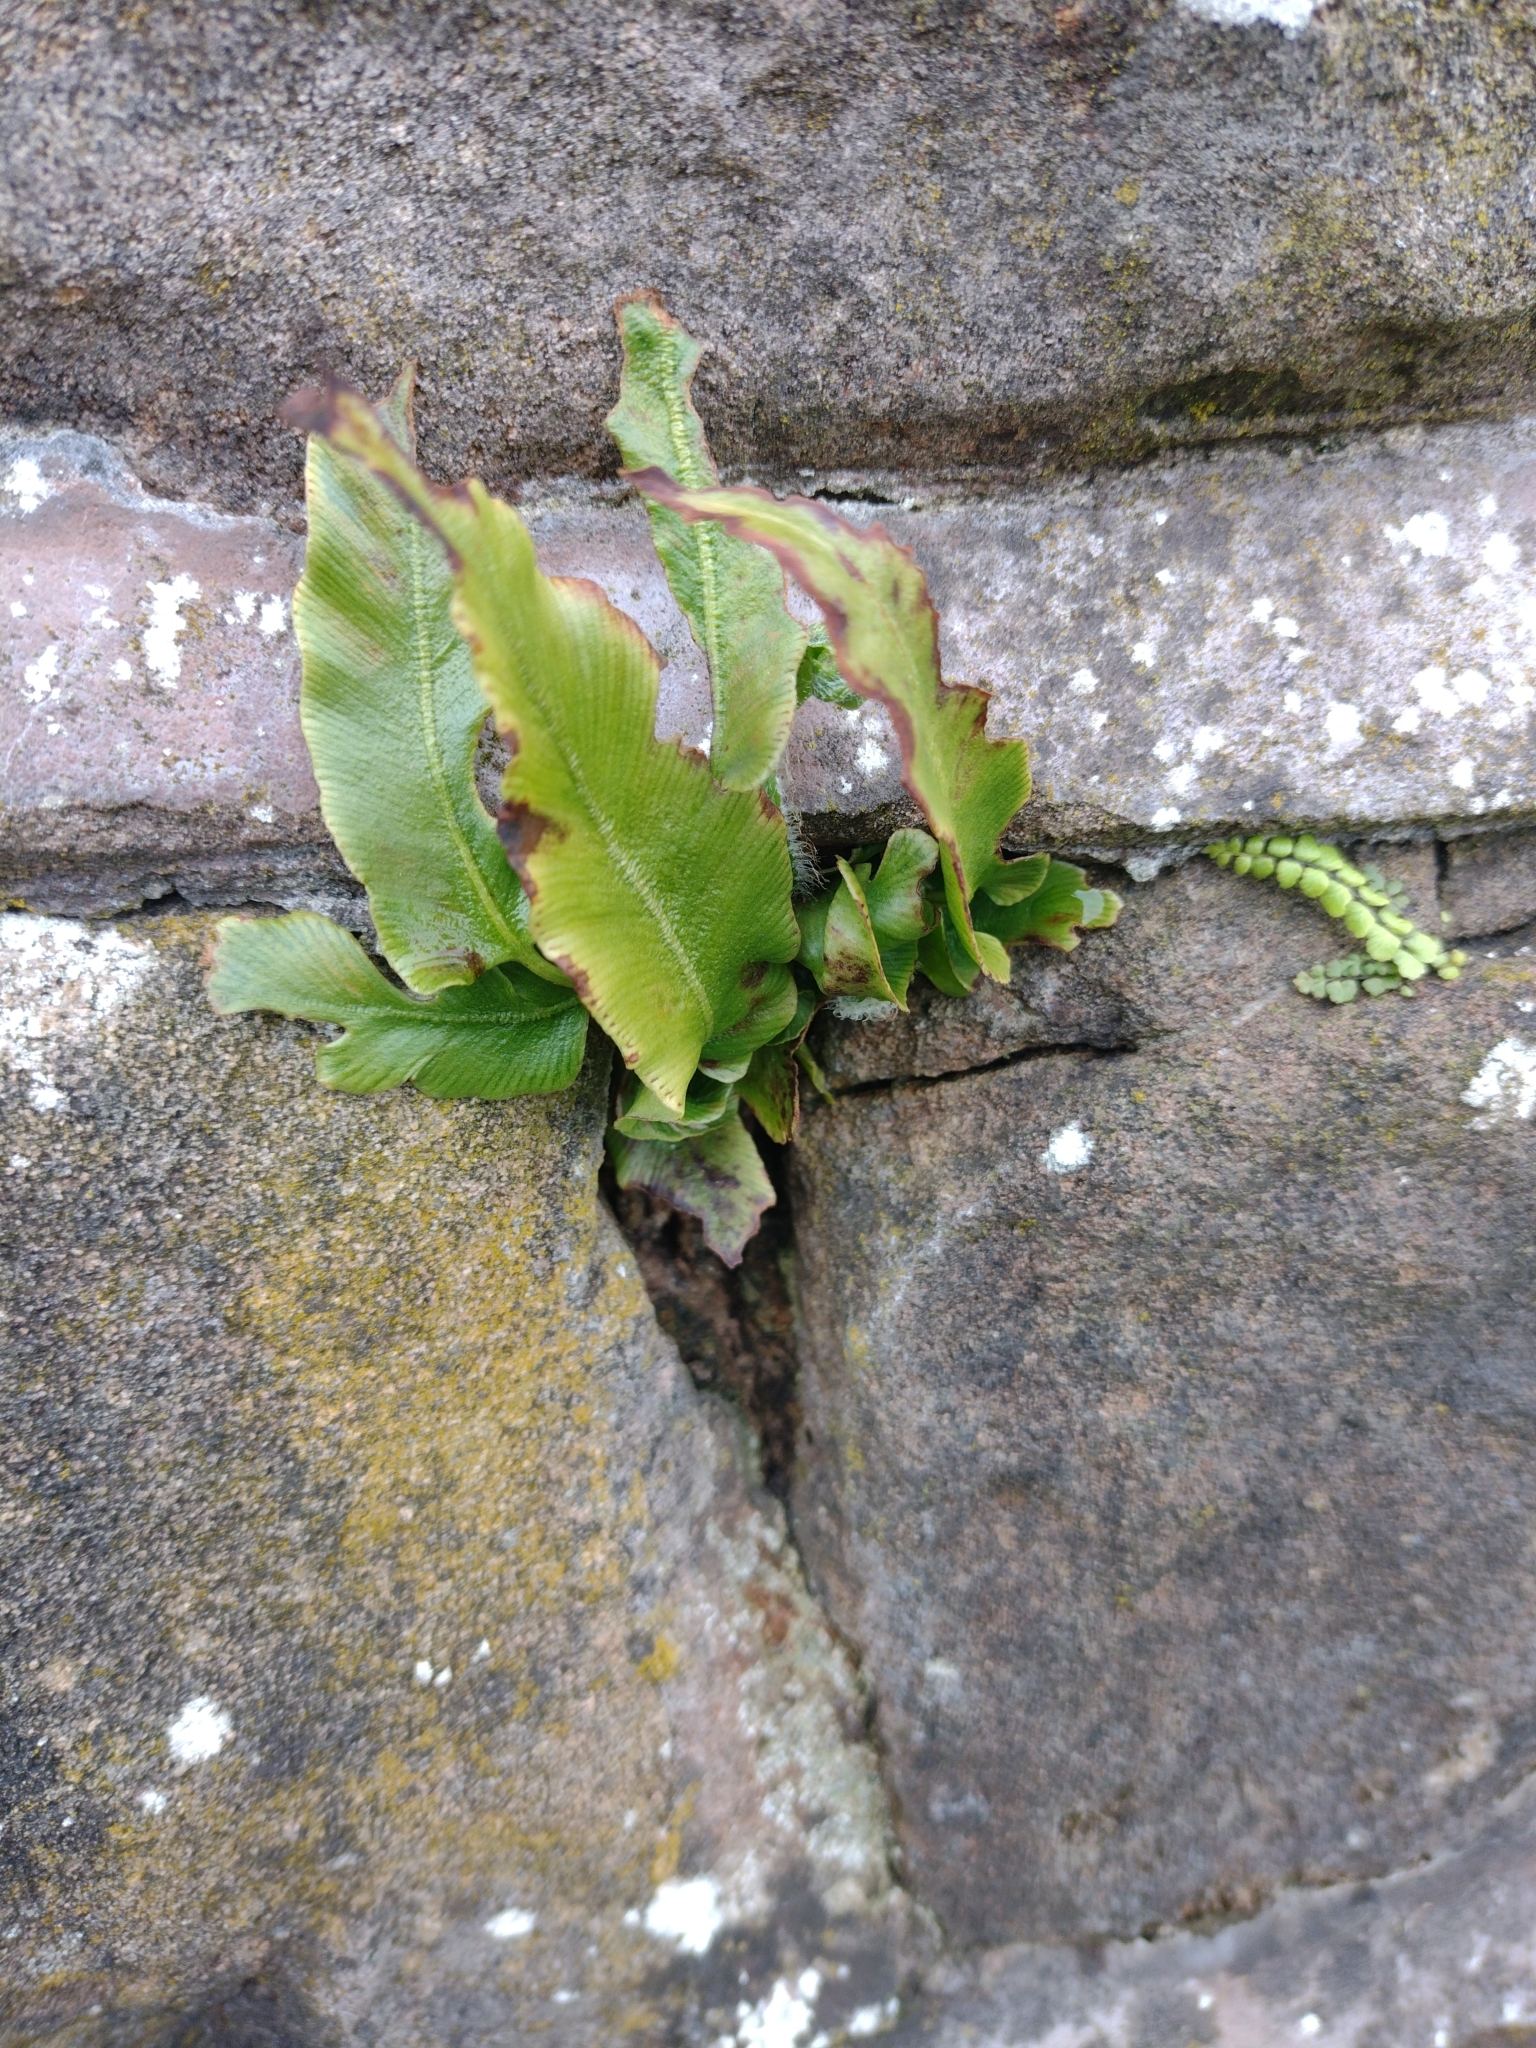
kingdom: Plantae
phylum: Tracheophyta
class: Polypodiopsida
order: Polypodiales
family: Aspleniaceae
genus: Asplenium
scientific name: Asplenium scolopendrium
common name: Hart's-tongue fern
